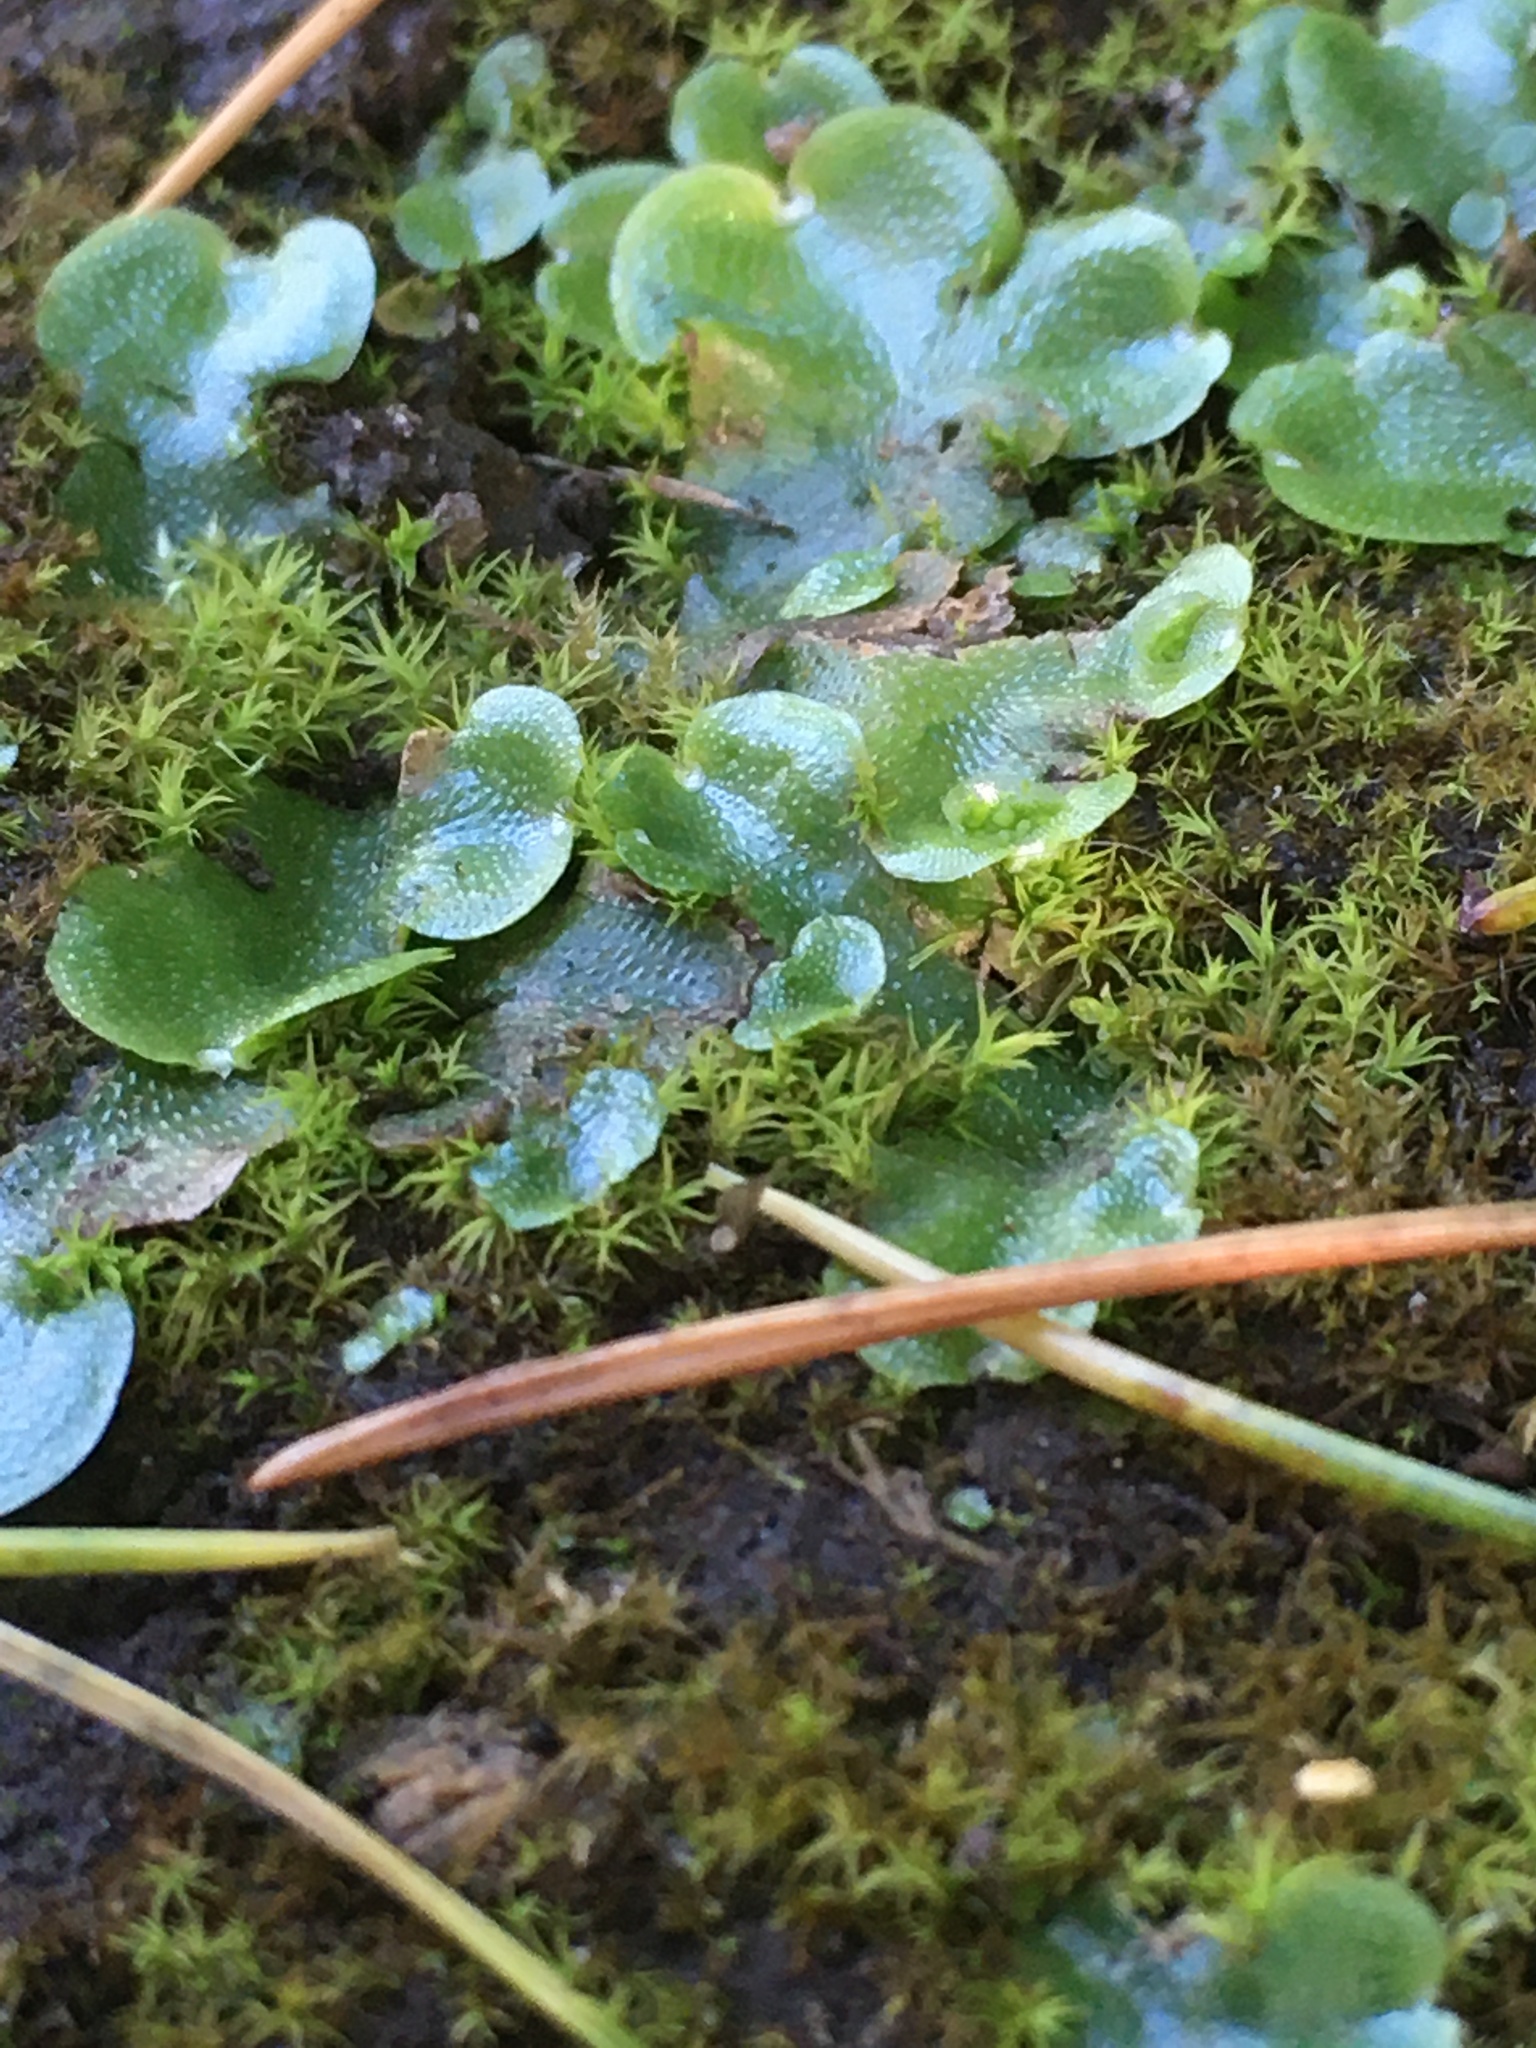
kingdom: Plantae
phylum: Marchantiophyta
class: Marchantiopsida
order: Lunulariales
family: Lunulariaceae
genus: Lunularia
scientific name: Lunularia cruciata
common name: Crescent-cup liverwort
